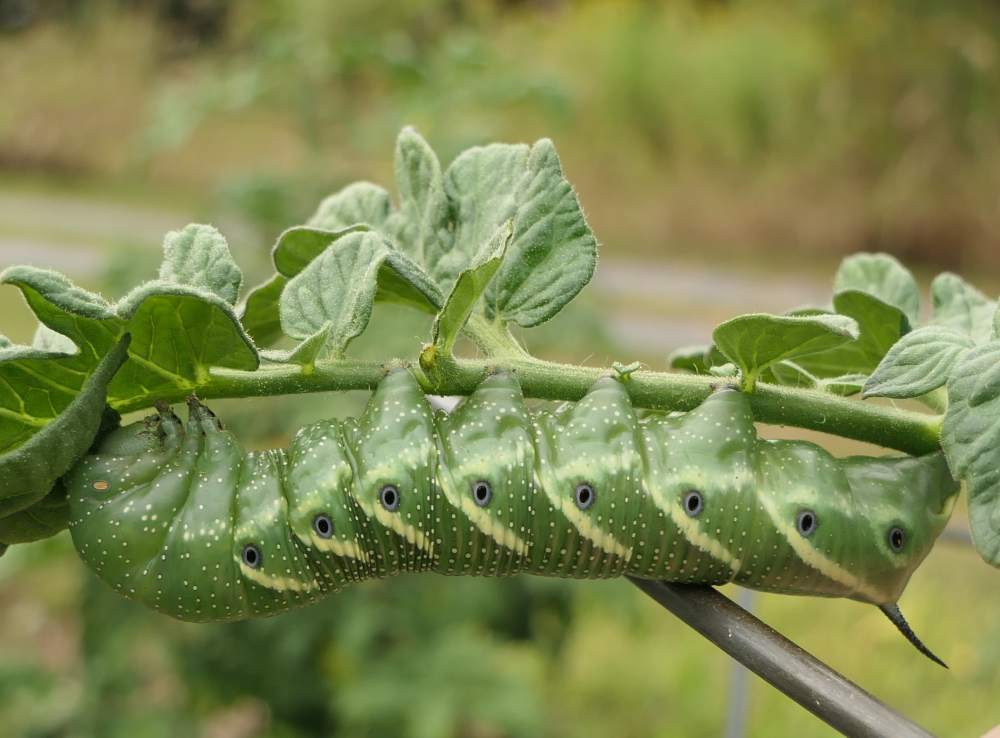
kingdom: Animalia
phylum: Arthropoda
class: Insecta
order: Lepidoptera
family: Sphingidae
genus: Manduca
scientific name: Manduca quinquemaculatus
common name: Five-spotted hawk-moth
